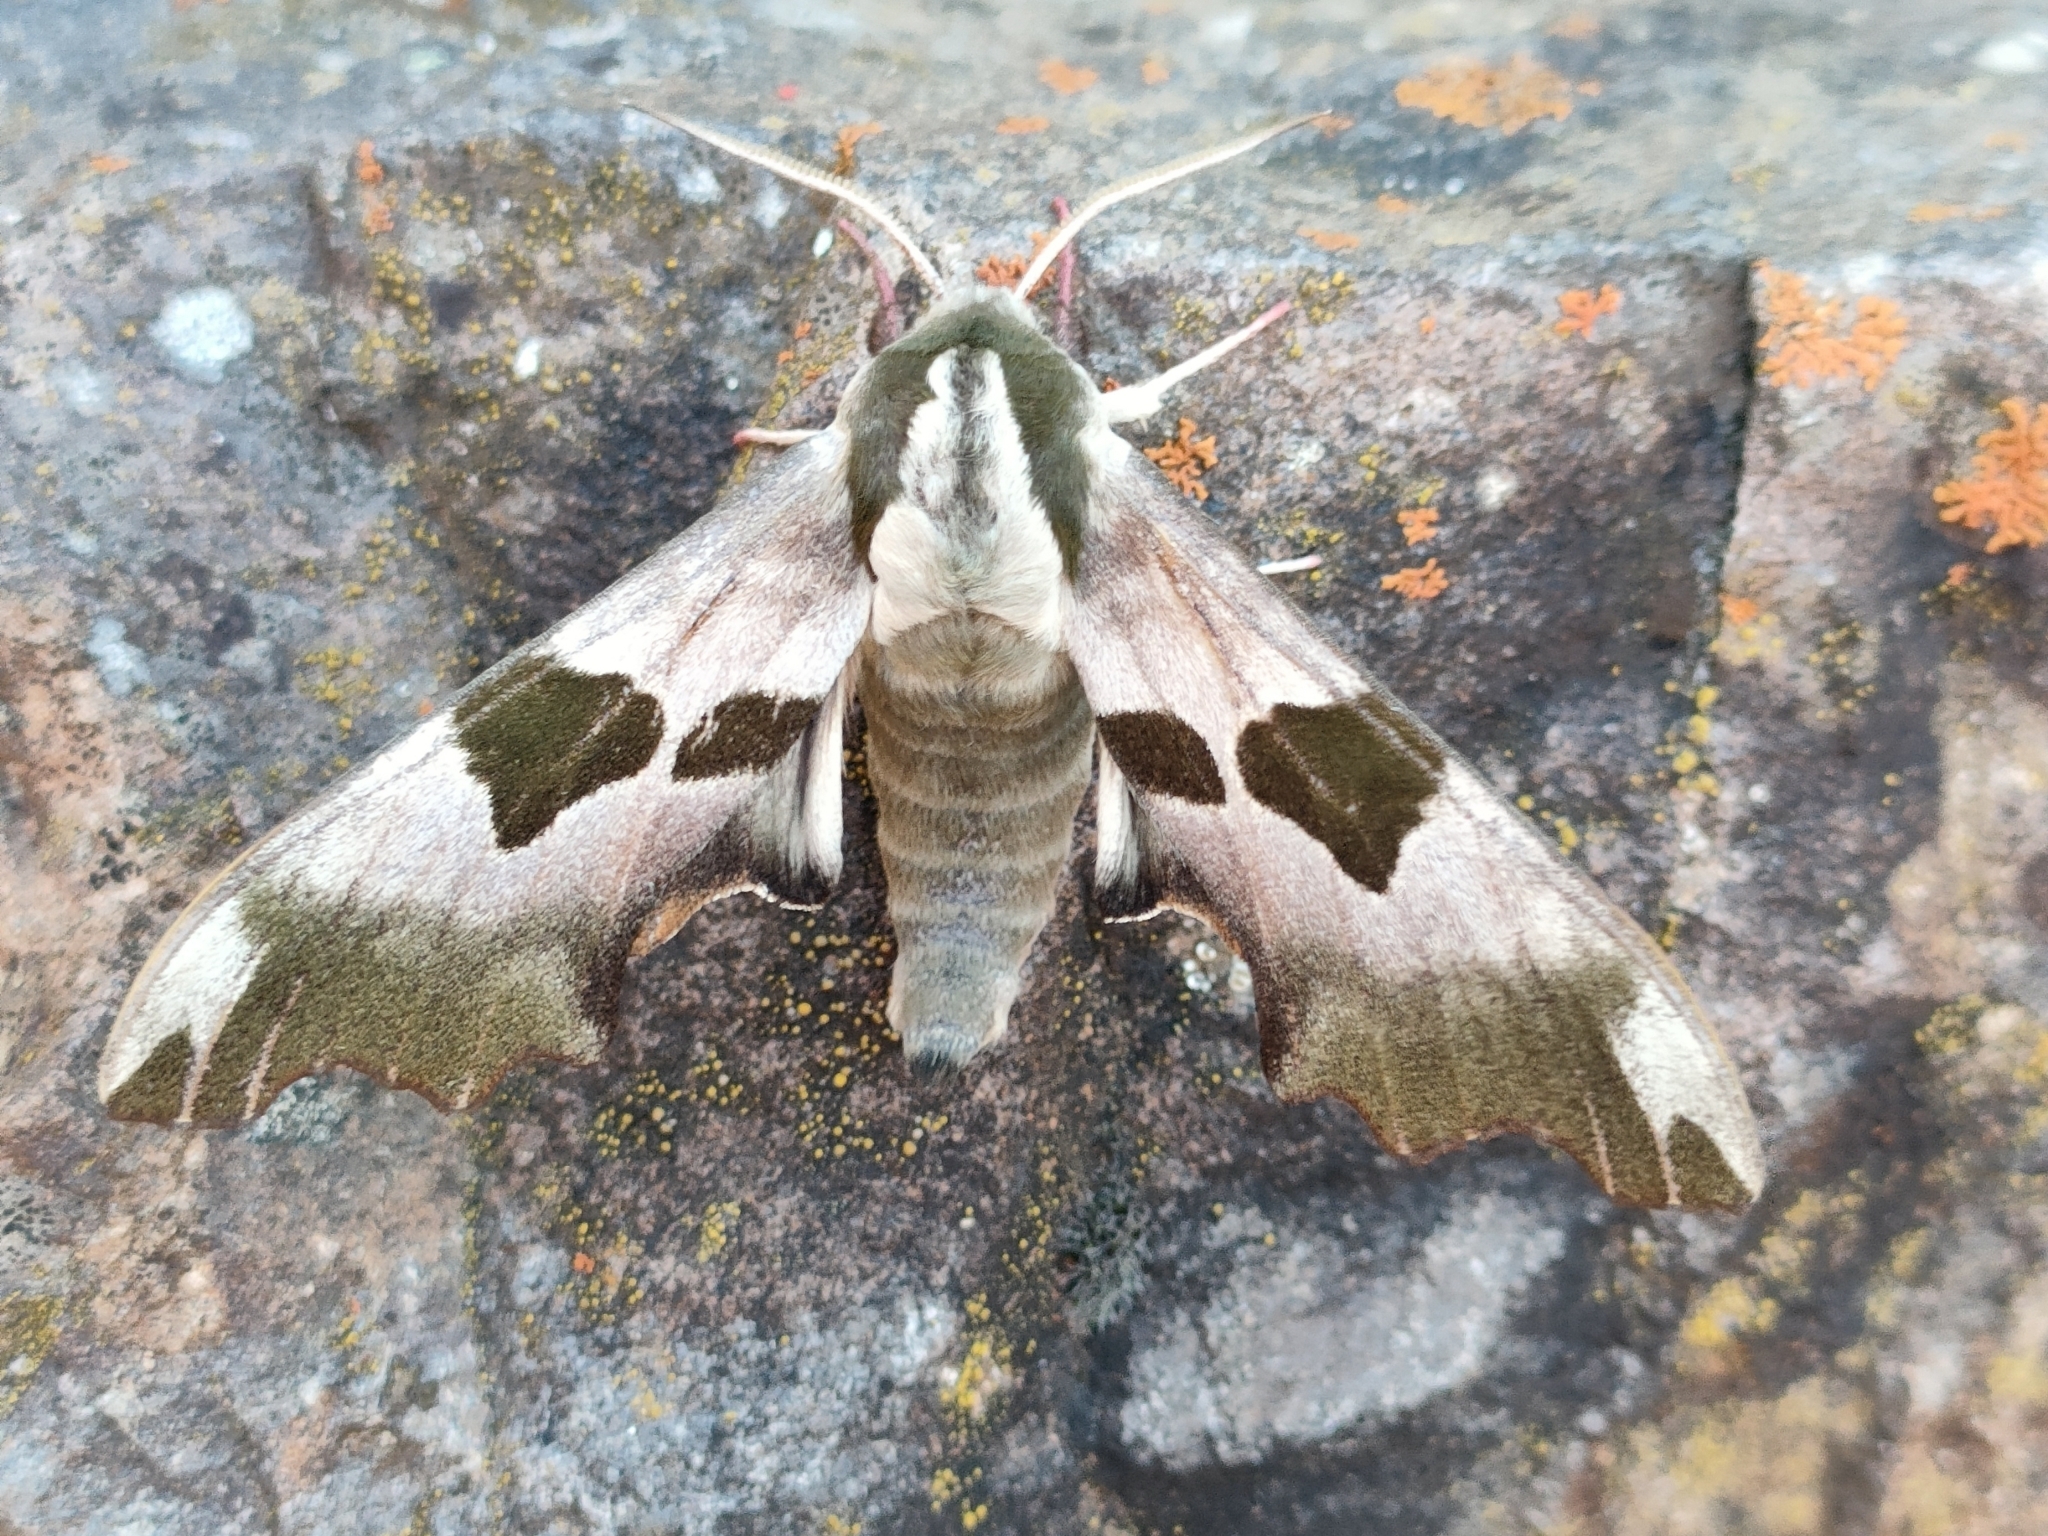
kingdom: Animalia
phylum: Arthropoda
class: Insecta
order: Lepidoptera
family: Sphingidae
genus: Mimas
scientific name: Mimas tiliae
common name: Lime hawk-moth
